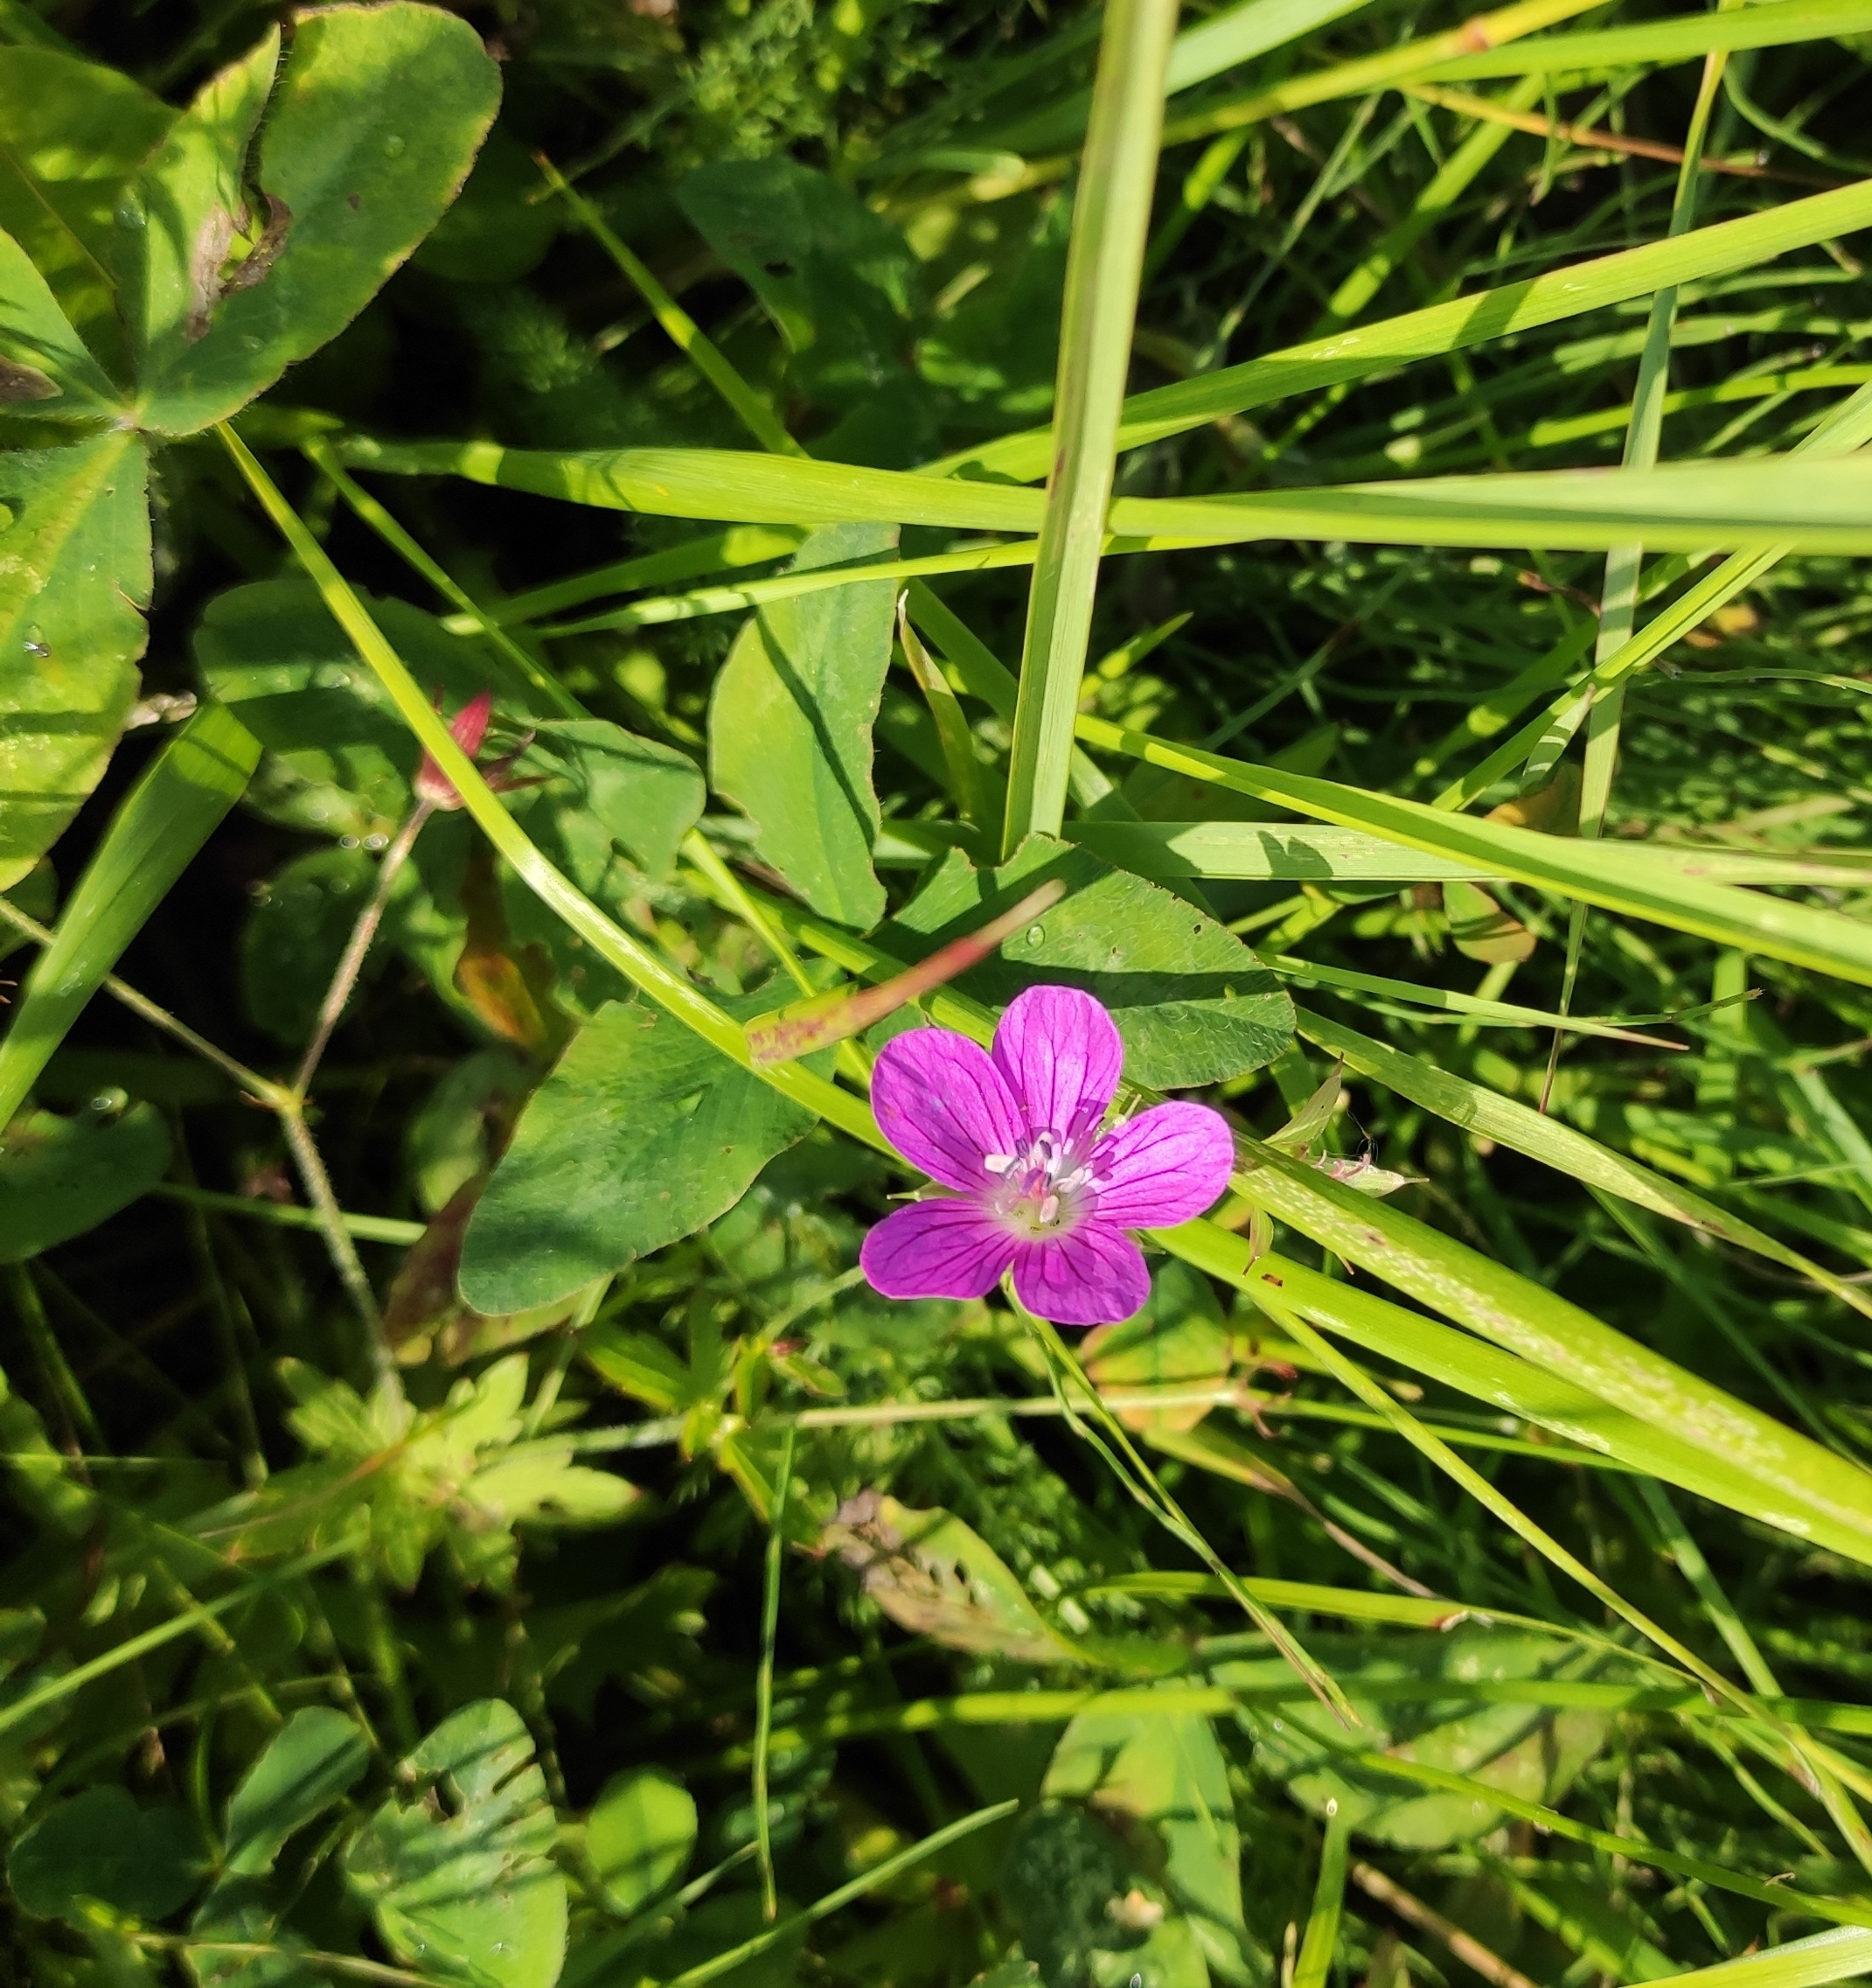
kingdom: Plantae
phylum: Tracheophyta
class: Magnoliopsida
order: Geraniales
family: Geraniaceae
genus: Geranium
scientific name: Geranium palustre
